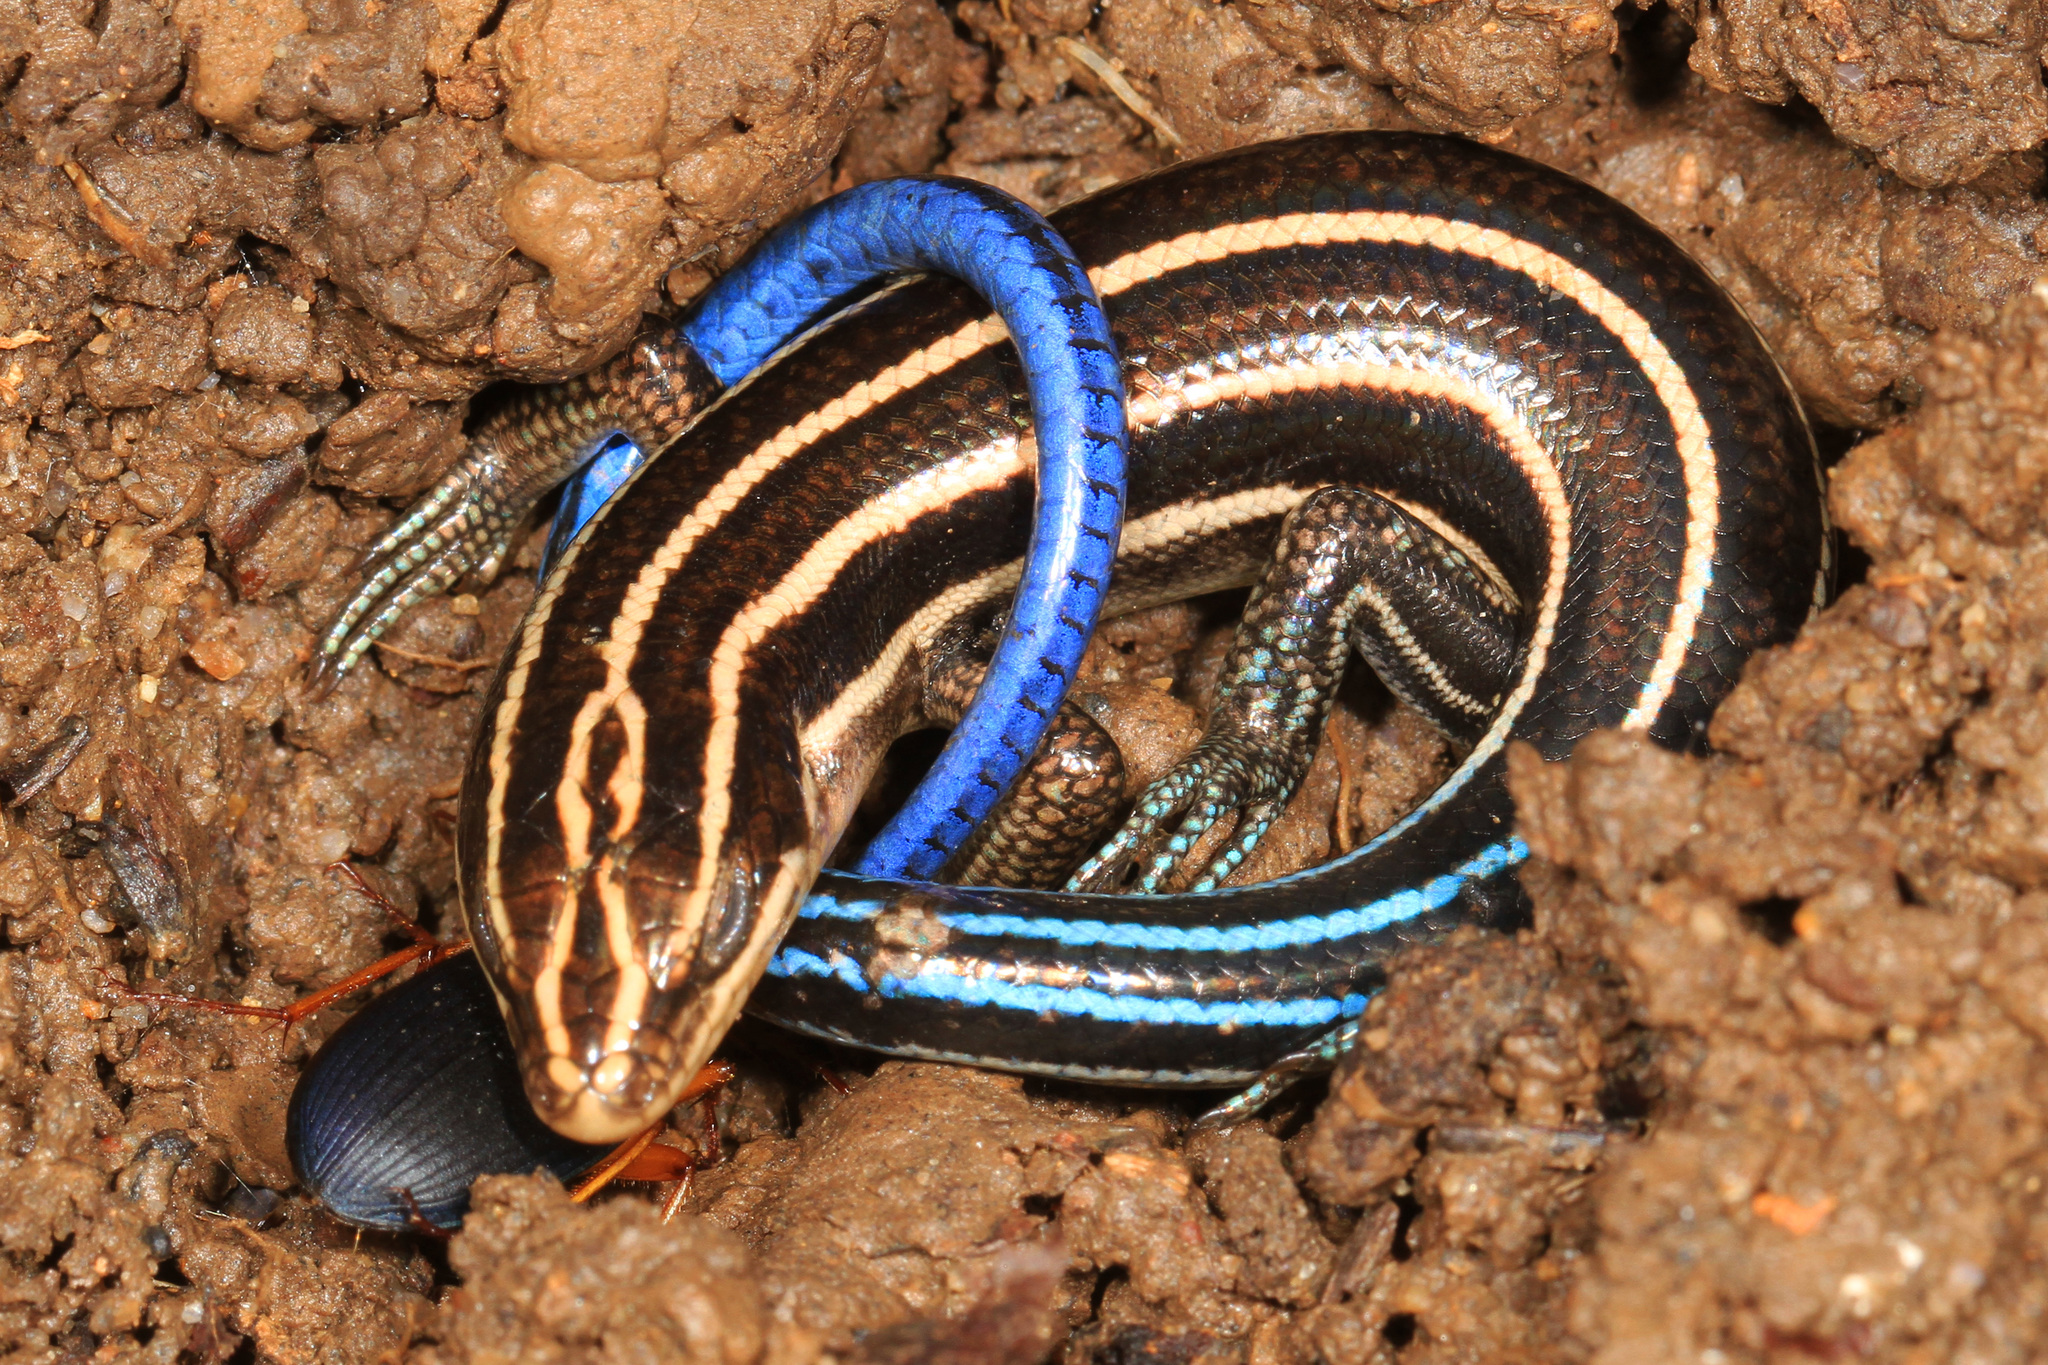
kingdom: Animalia
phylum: Chordata
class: Squamata
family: Scincidae
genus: Plestiodon
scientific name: Plestiodon fasciatus
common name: Five-lined skink
